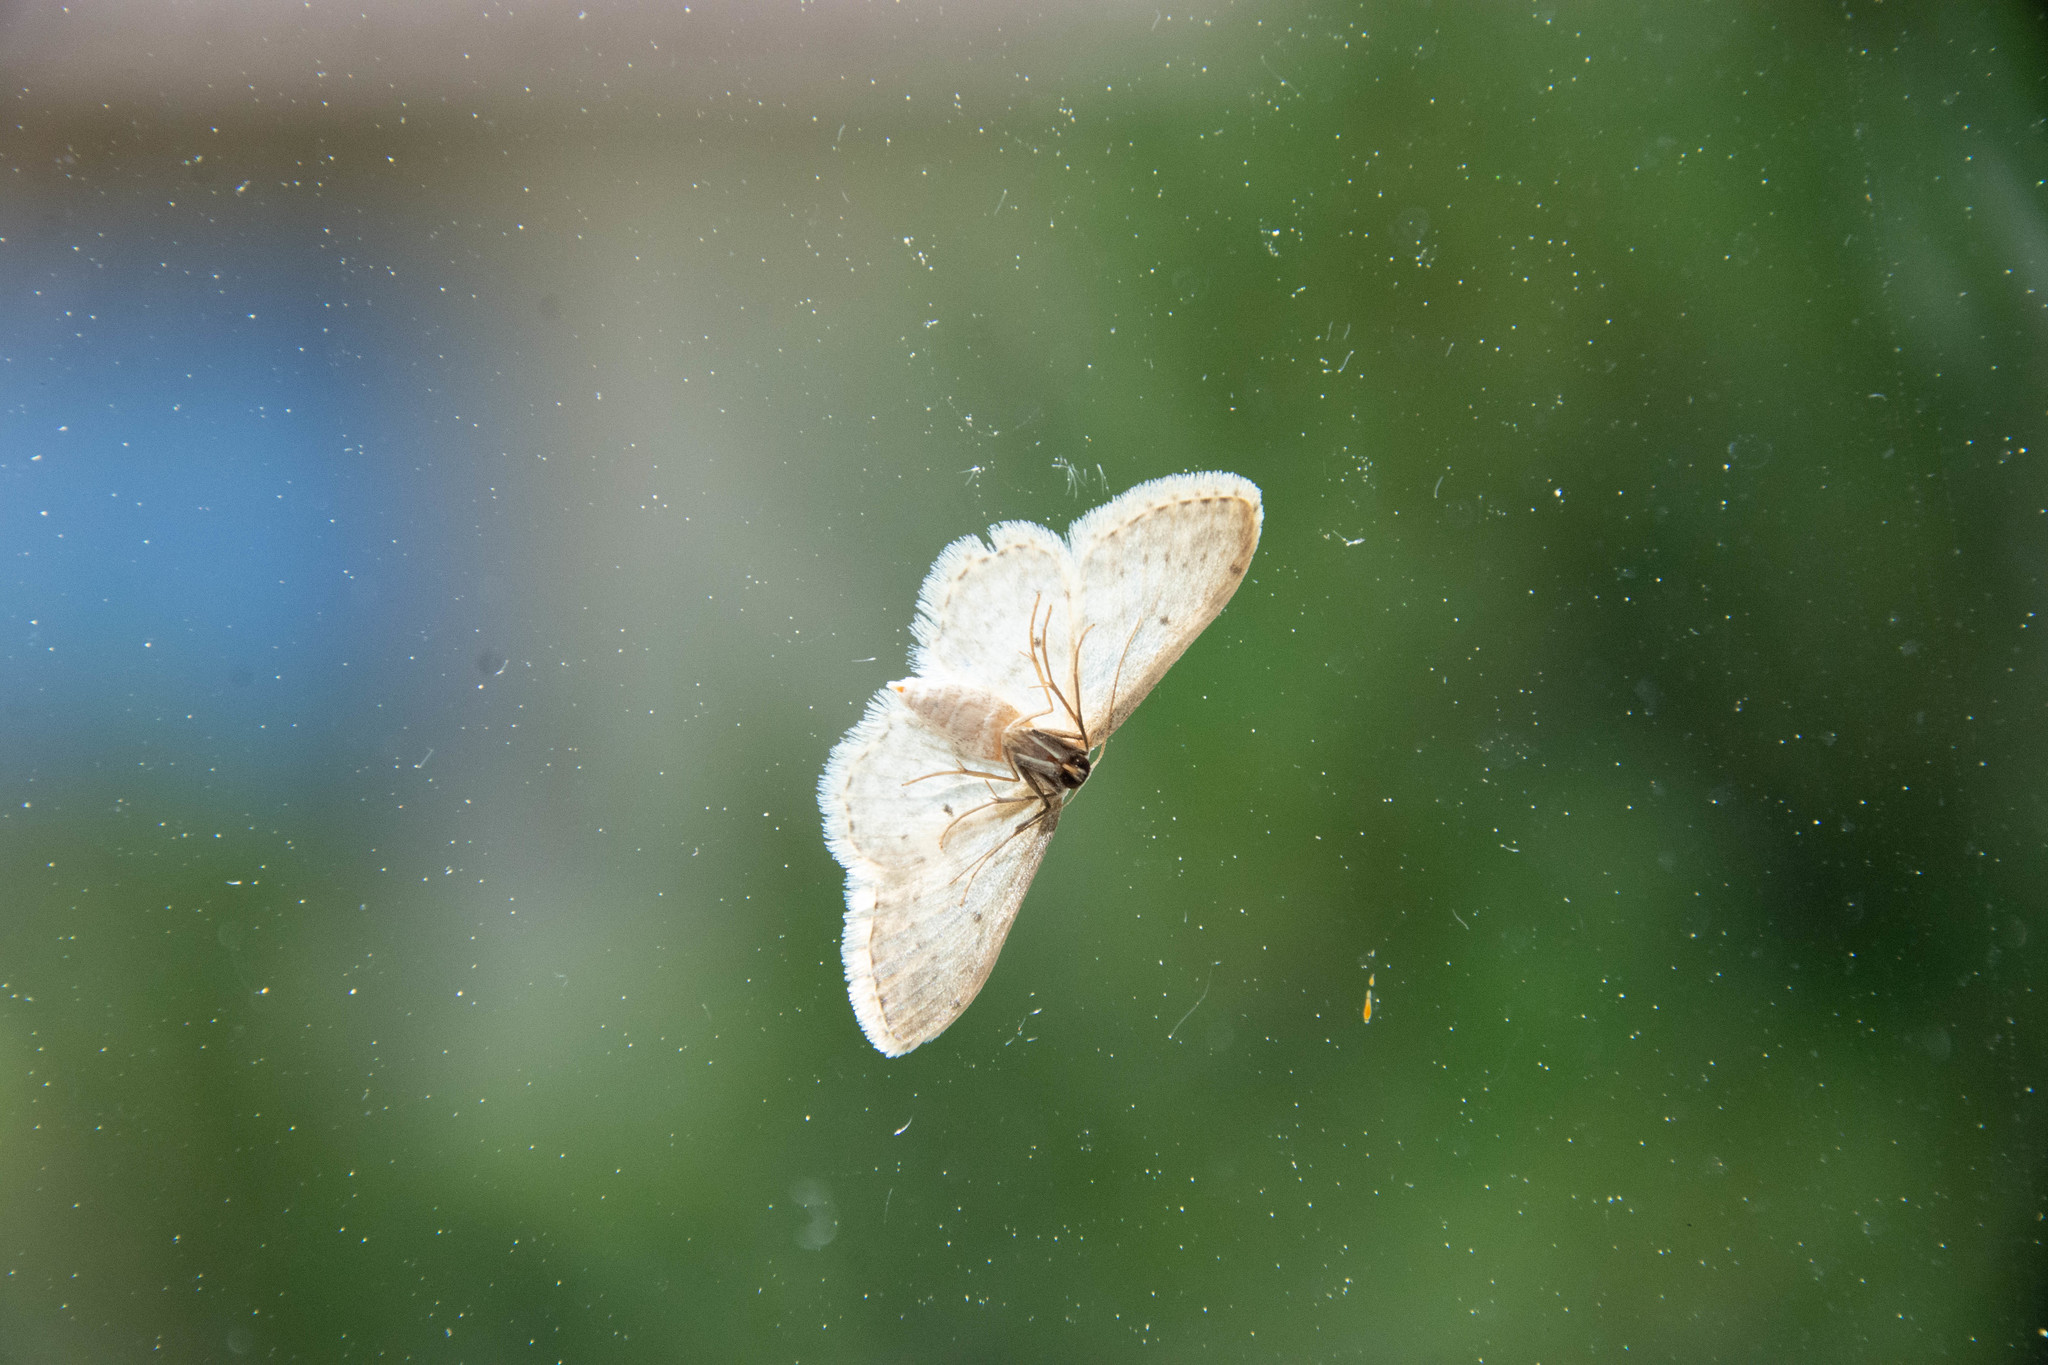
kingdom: Animalia
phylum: Arthropoda
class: Insecta
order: Lepidoptera
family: Geometridae
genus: Idaea
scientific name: Idaea seriata
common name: Small dusty wave
